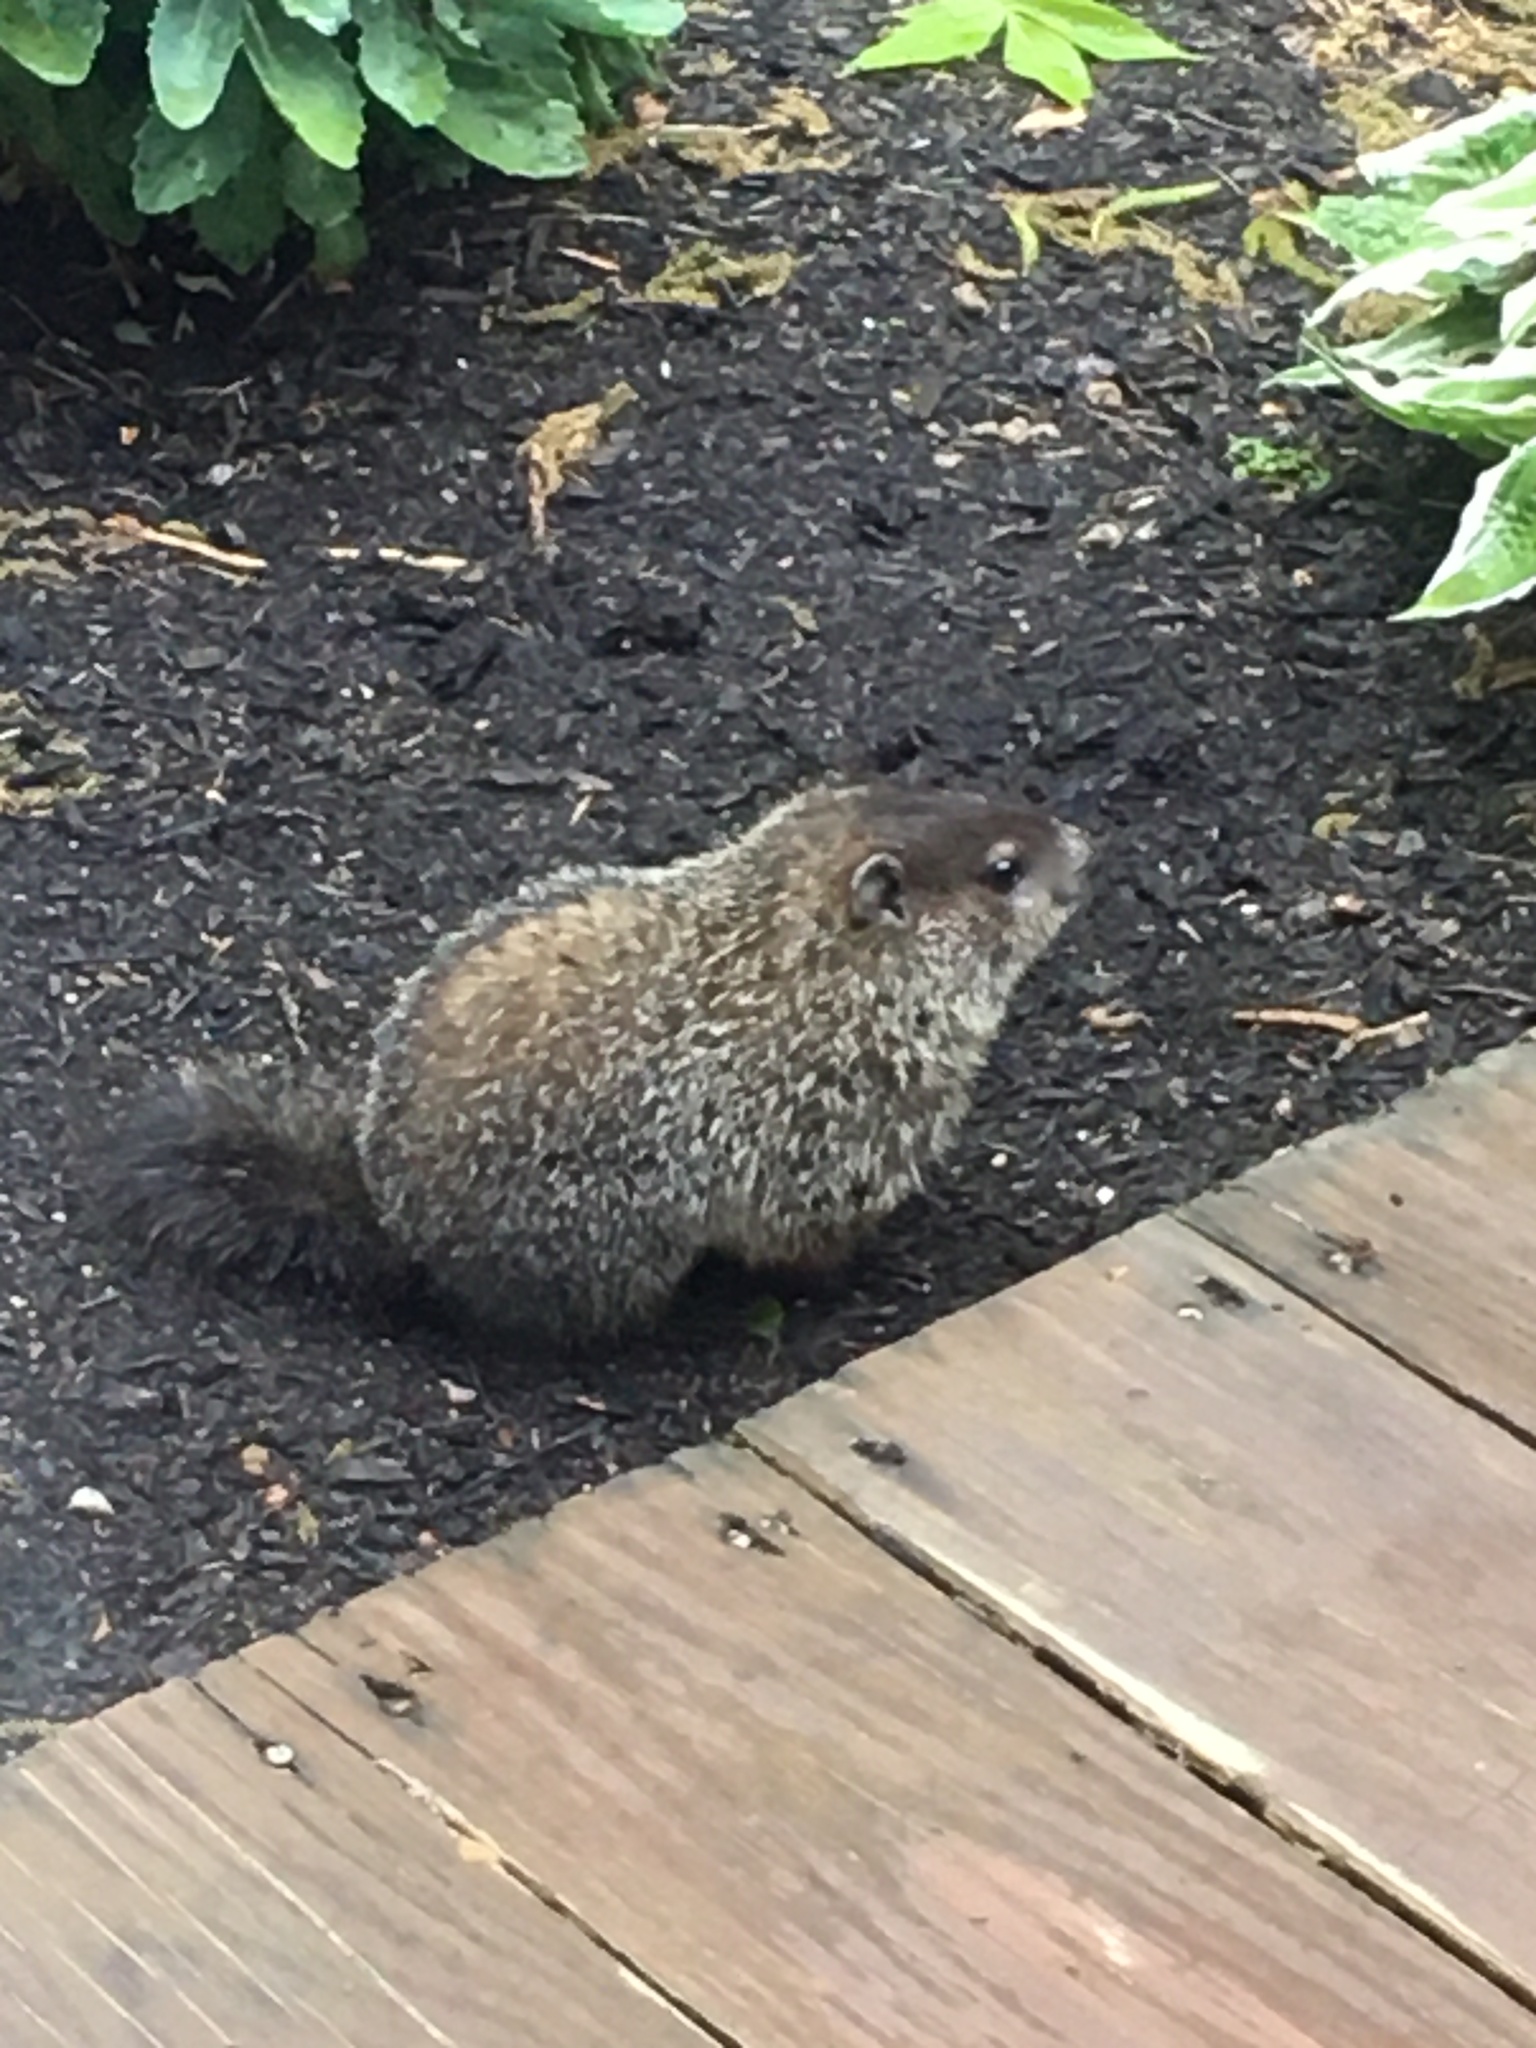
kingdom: Animalia
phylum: Chordata
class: Mammalia
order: Rodentia
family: Sciuridae
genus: Marmota
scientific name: Marmota monax
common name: Groundhog
